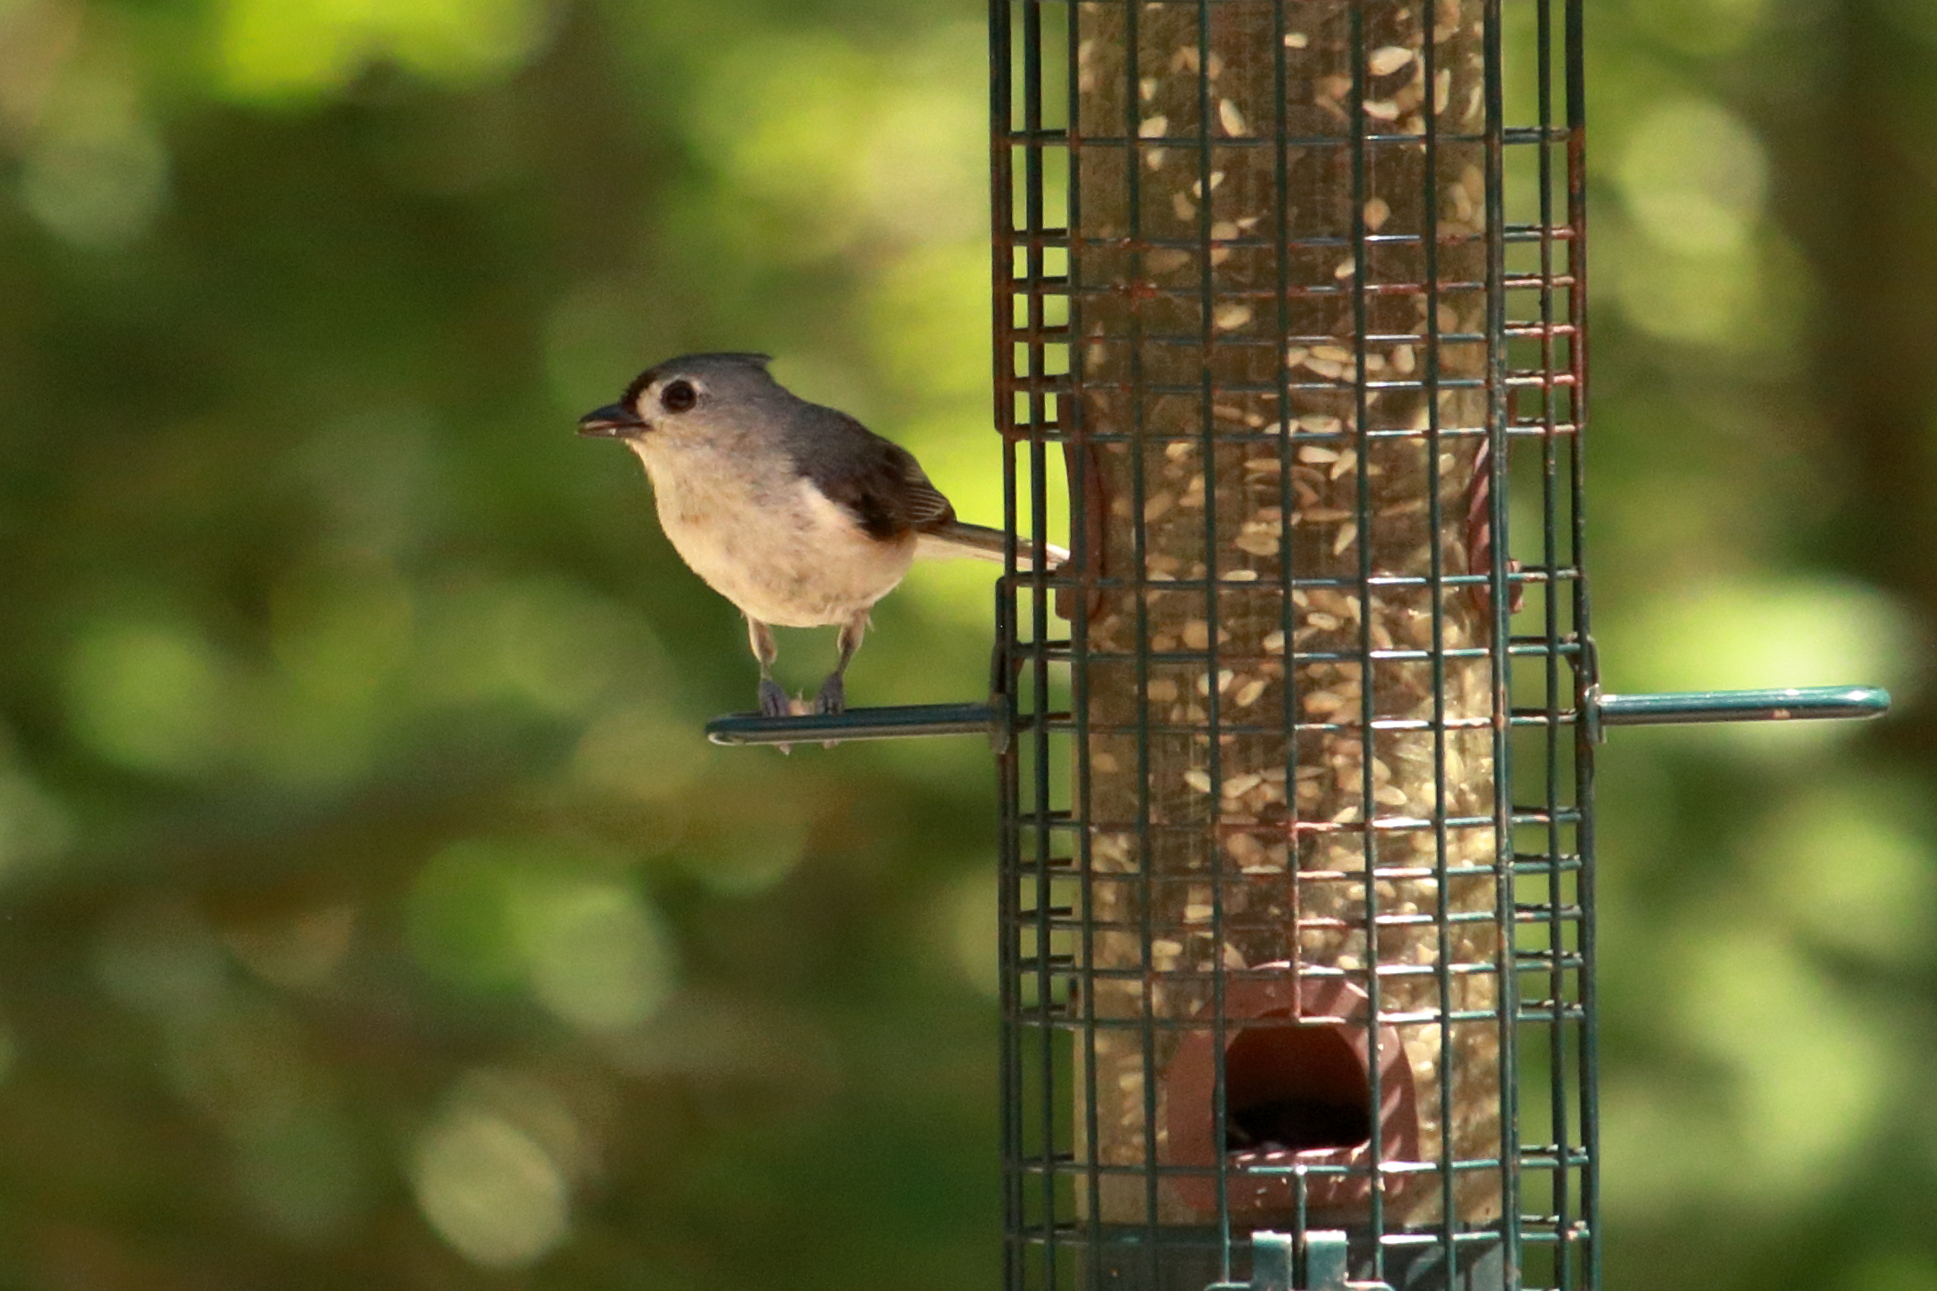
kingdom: Animalia
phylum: Chordata
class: Aves
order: Passeriformes
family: Paridae
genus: Baeolophus
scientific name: Baeolophus bicolor
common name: Tufted titmouse
